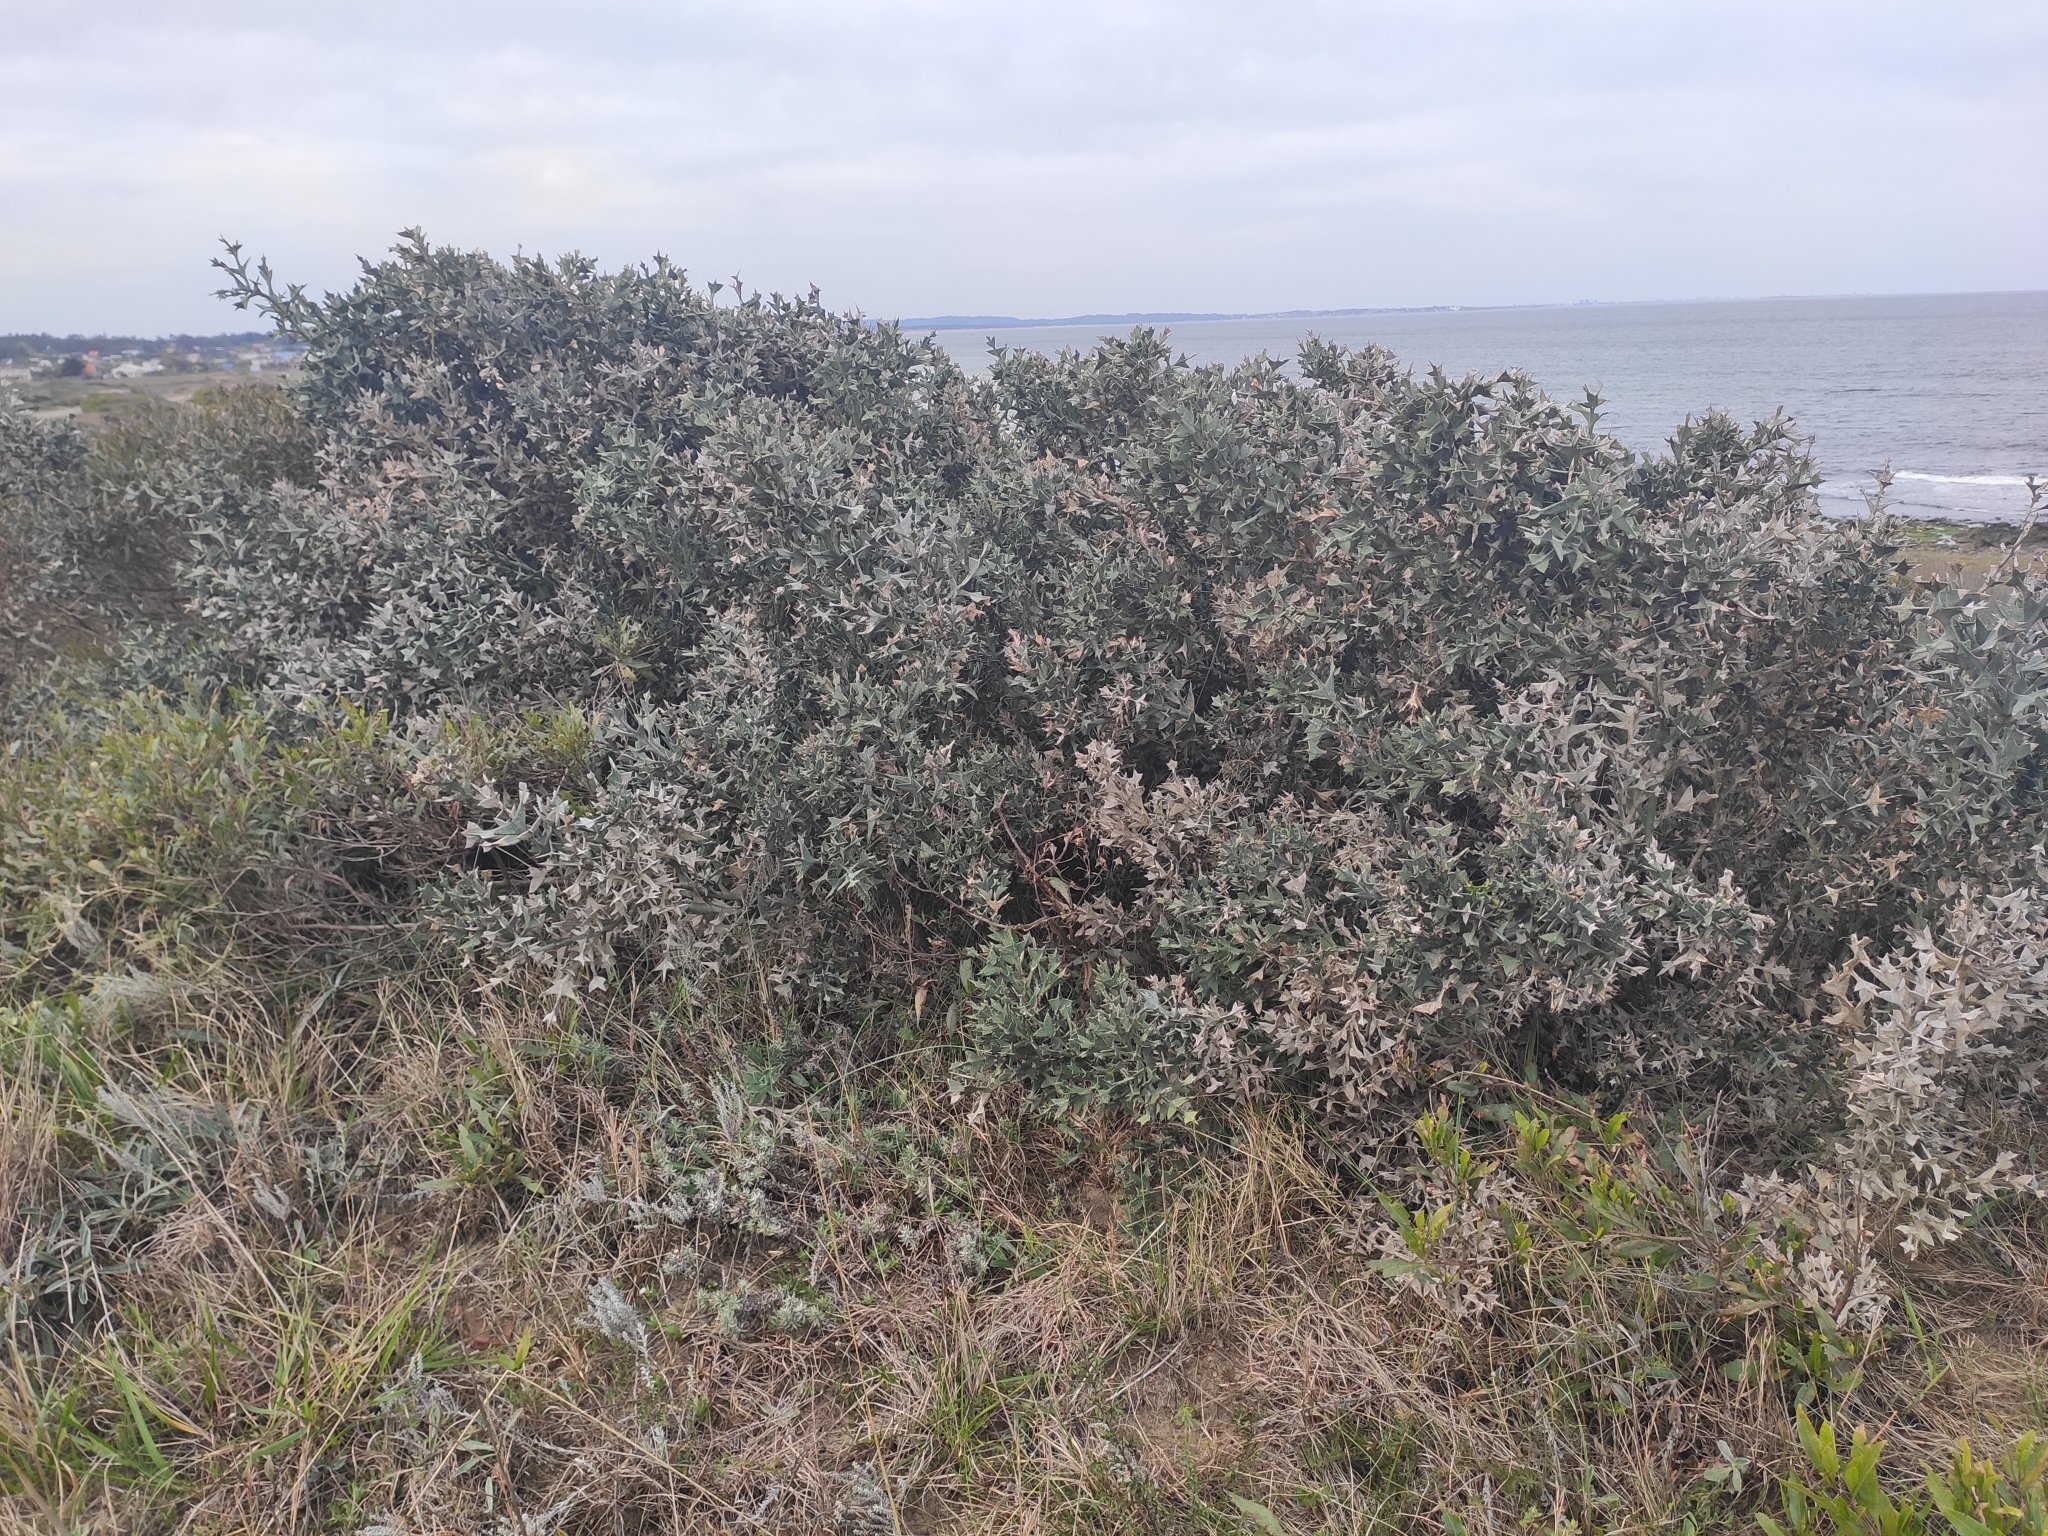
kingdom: Plantae
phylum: Tracheophyta
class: Magnoliopsida
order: Rosales
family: Rhamnaceae
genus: Colletia
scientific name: Colletia paradoxa
